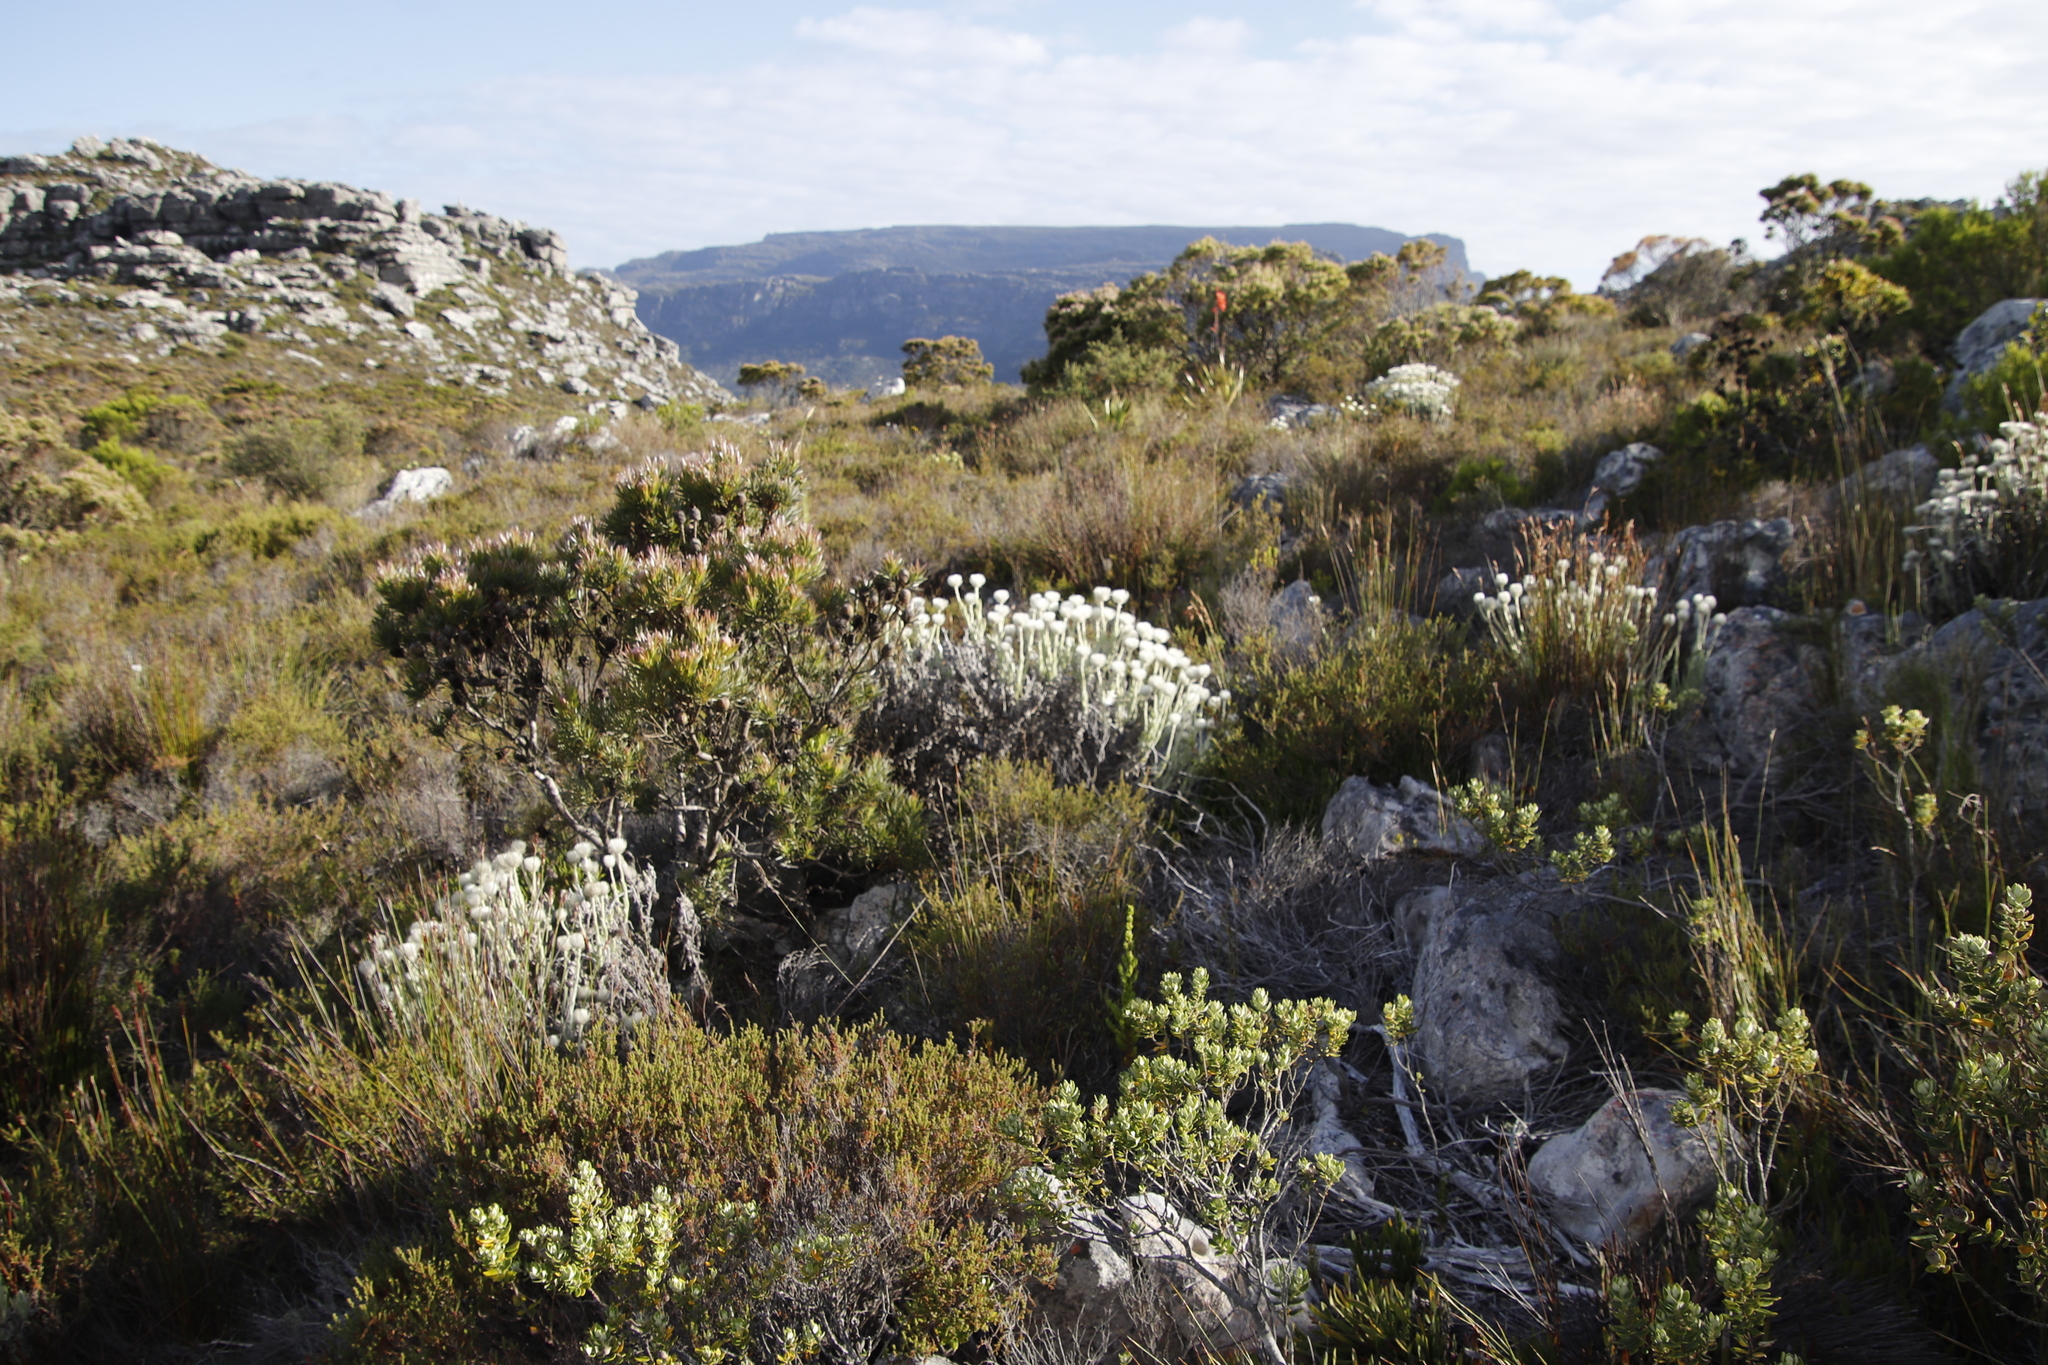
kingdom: Plantae
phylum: Tracheophyta
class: Magnoliopsida
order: Asterales
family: Asteraceae
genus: Syncarpha
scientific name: Syncarpha vestita
